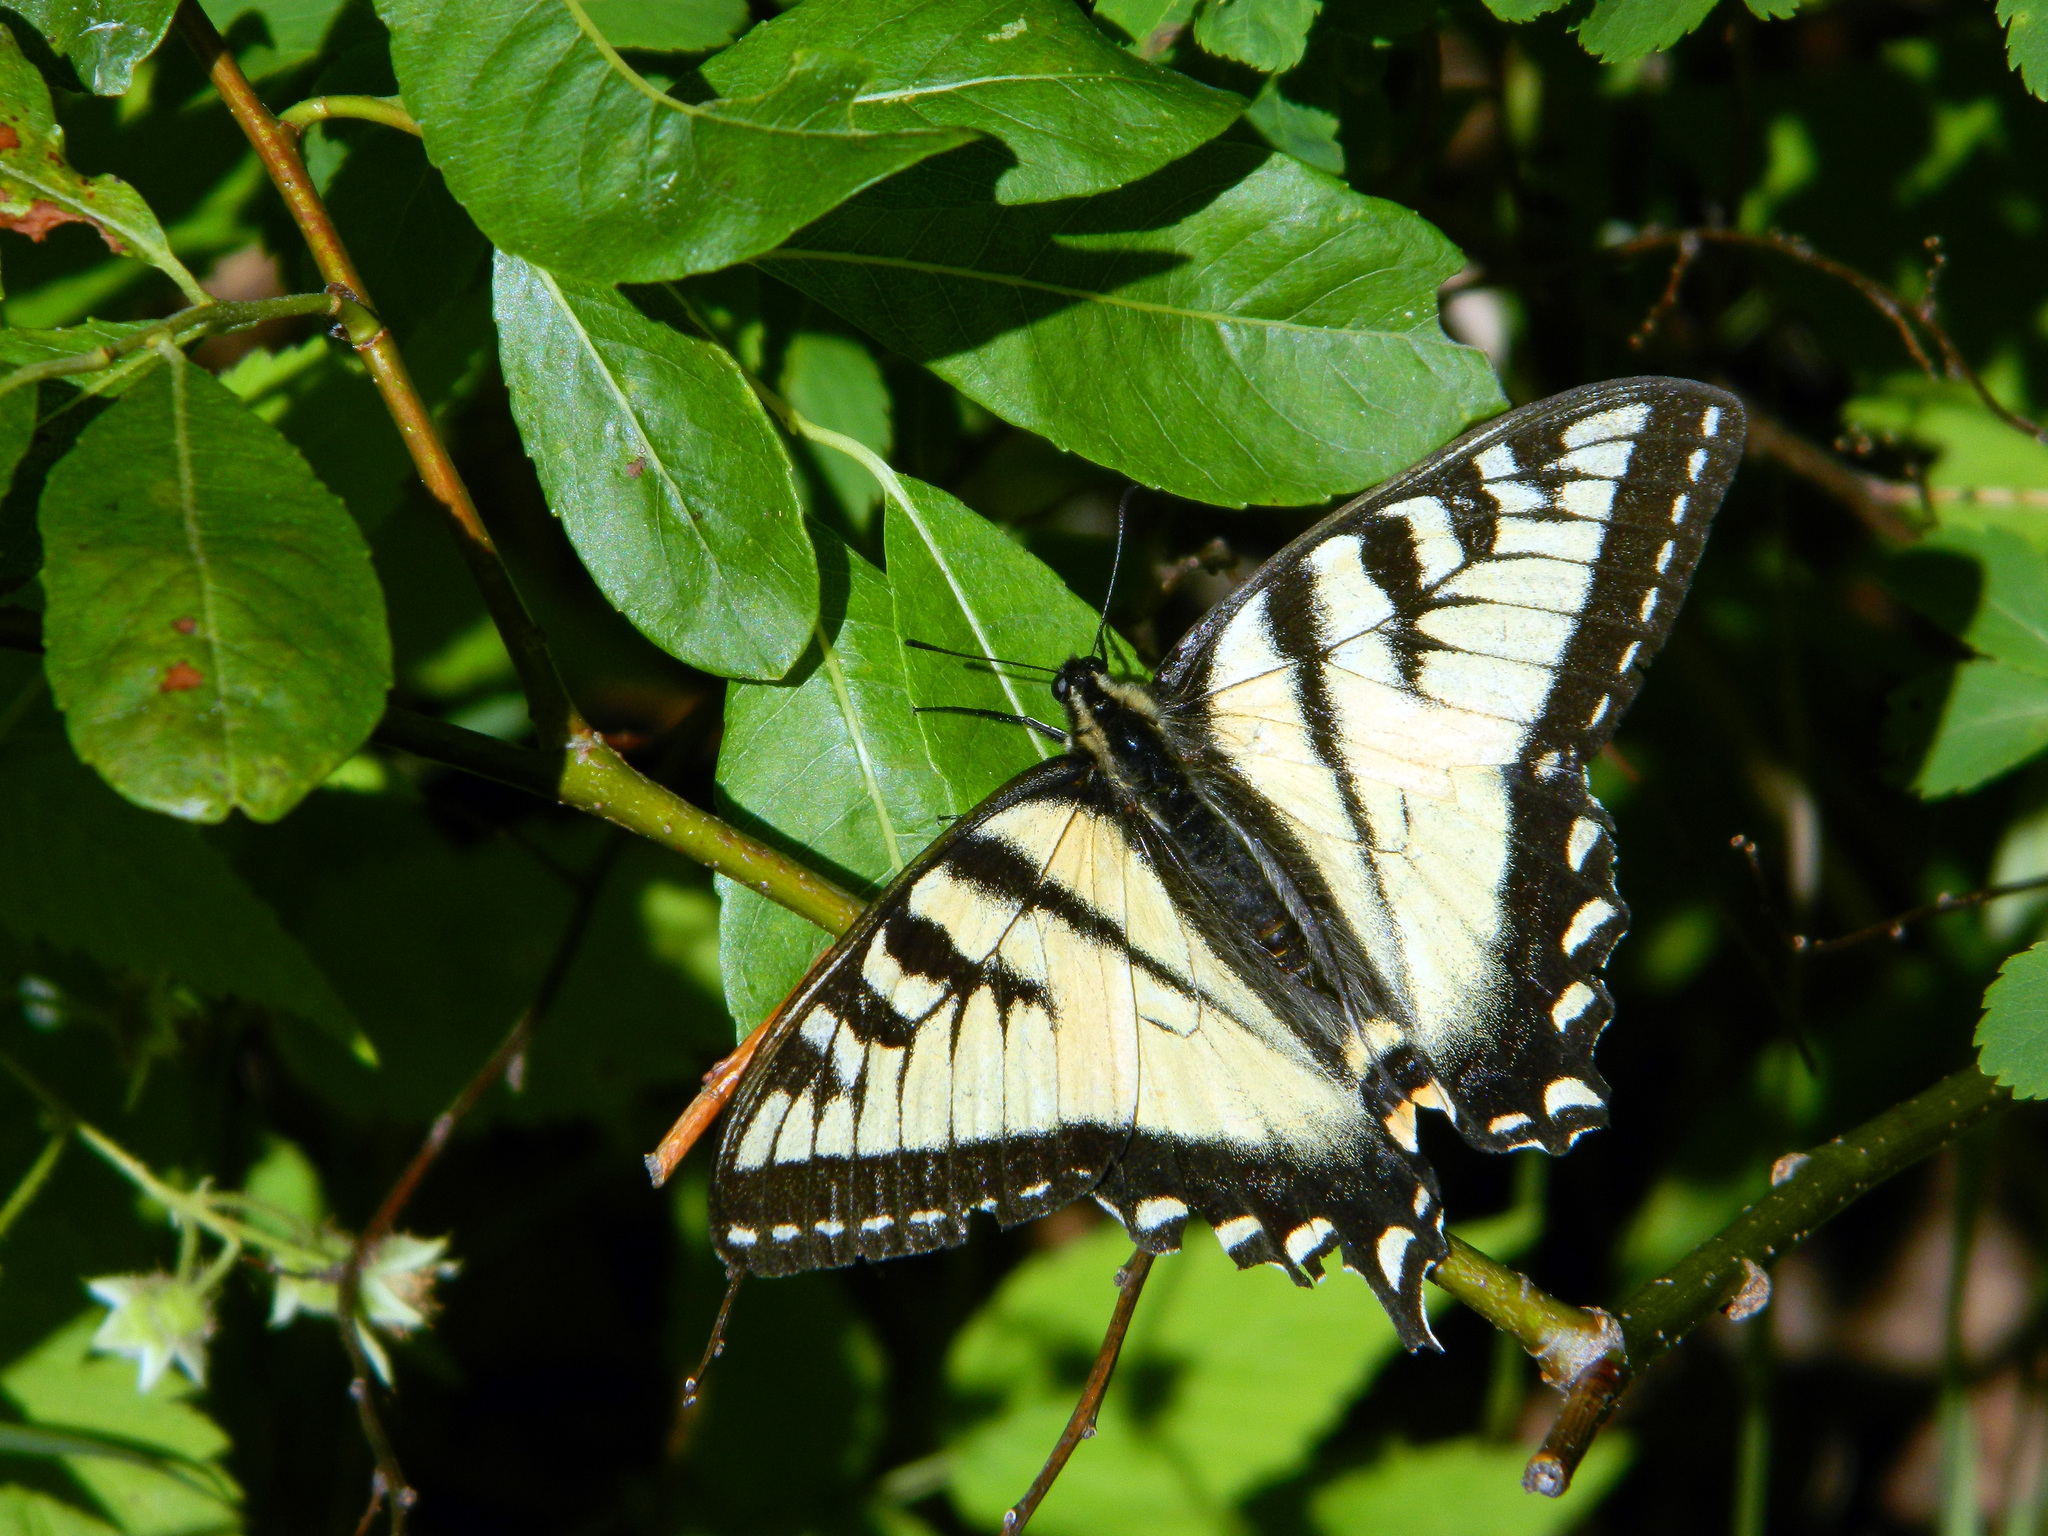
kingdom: Animalia
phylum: Arthropoda
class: Insecta
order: Lepidoptera
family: Papilionidae
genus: Papilio
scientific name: Papilio canadensis
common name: Canadian tiger swallowtail
